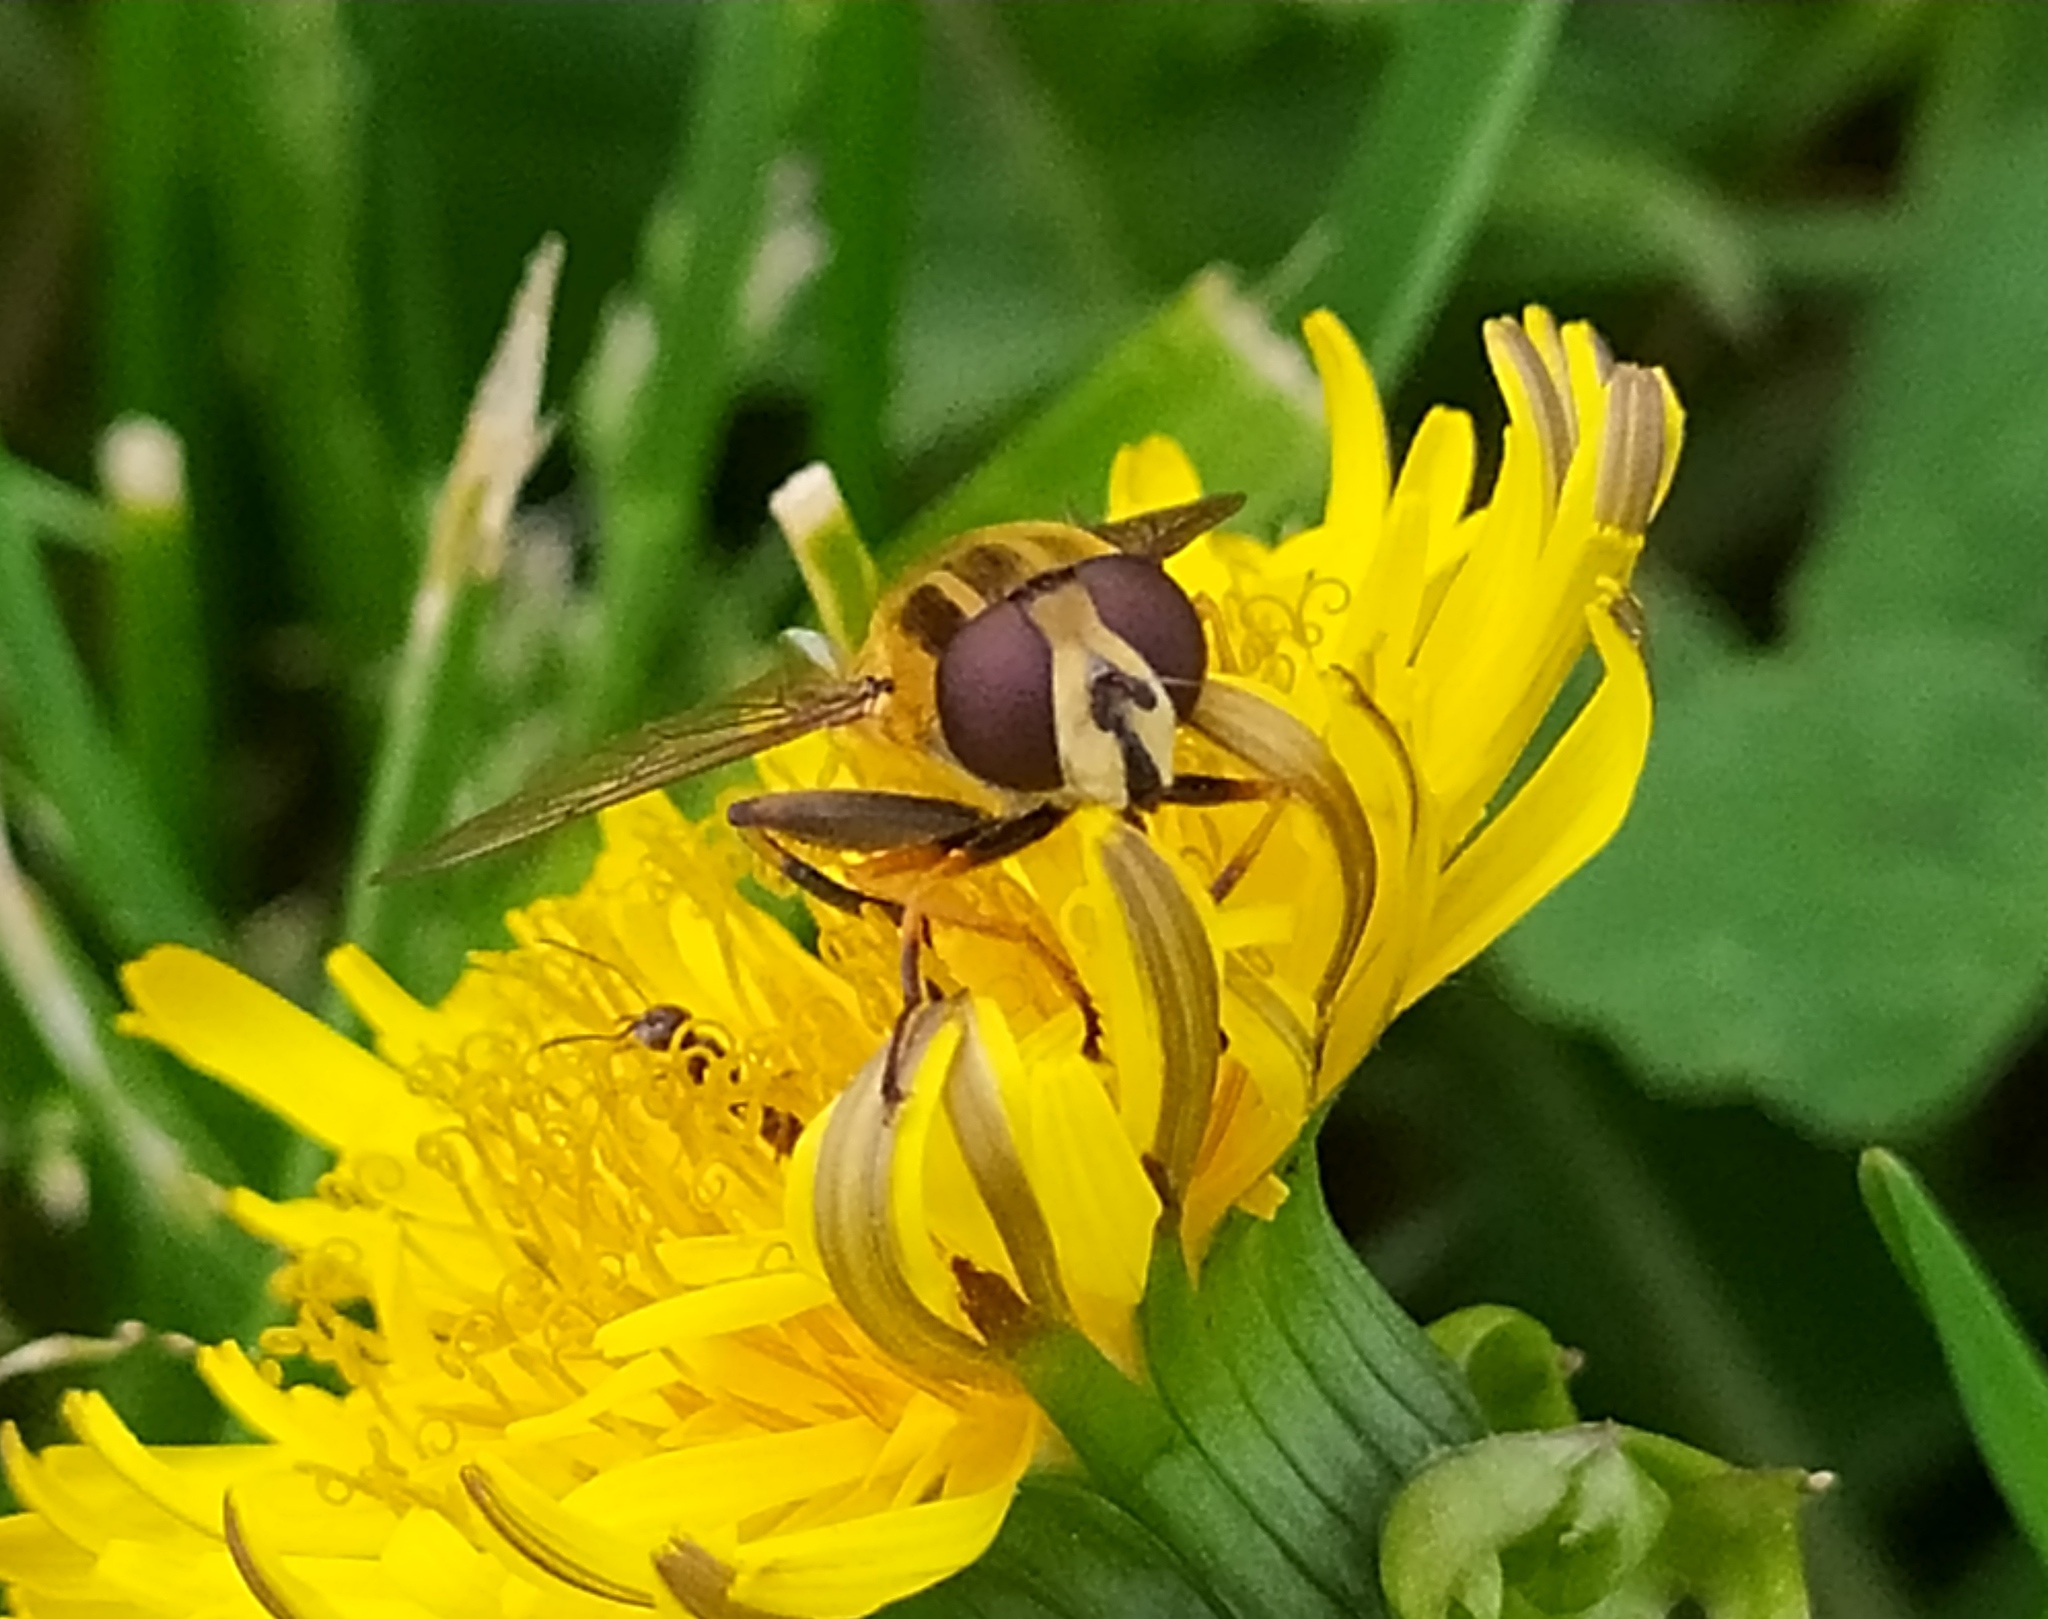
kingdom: Animalia
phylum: Arthropoda
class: Insecta
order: Diptera
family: Syrphidae
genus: Helophilus
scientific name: Helophilus hybridus
